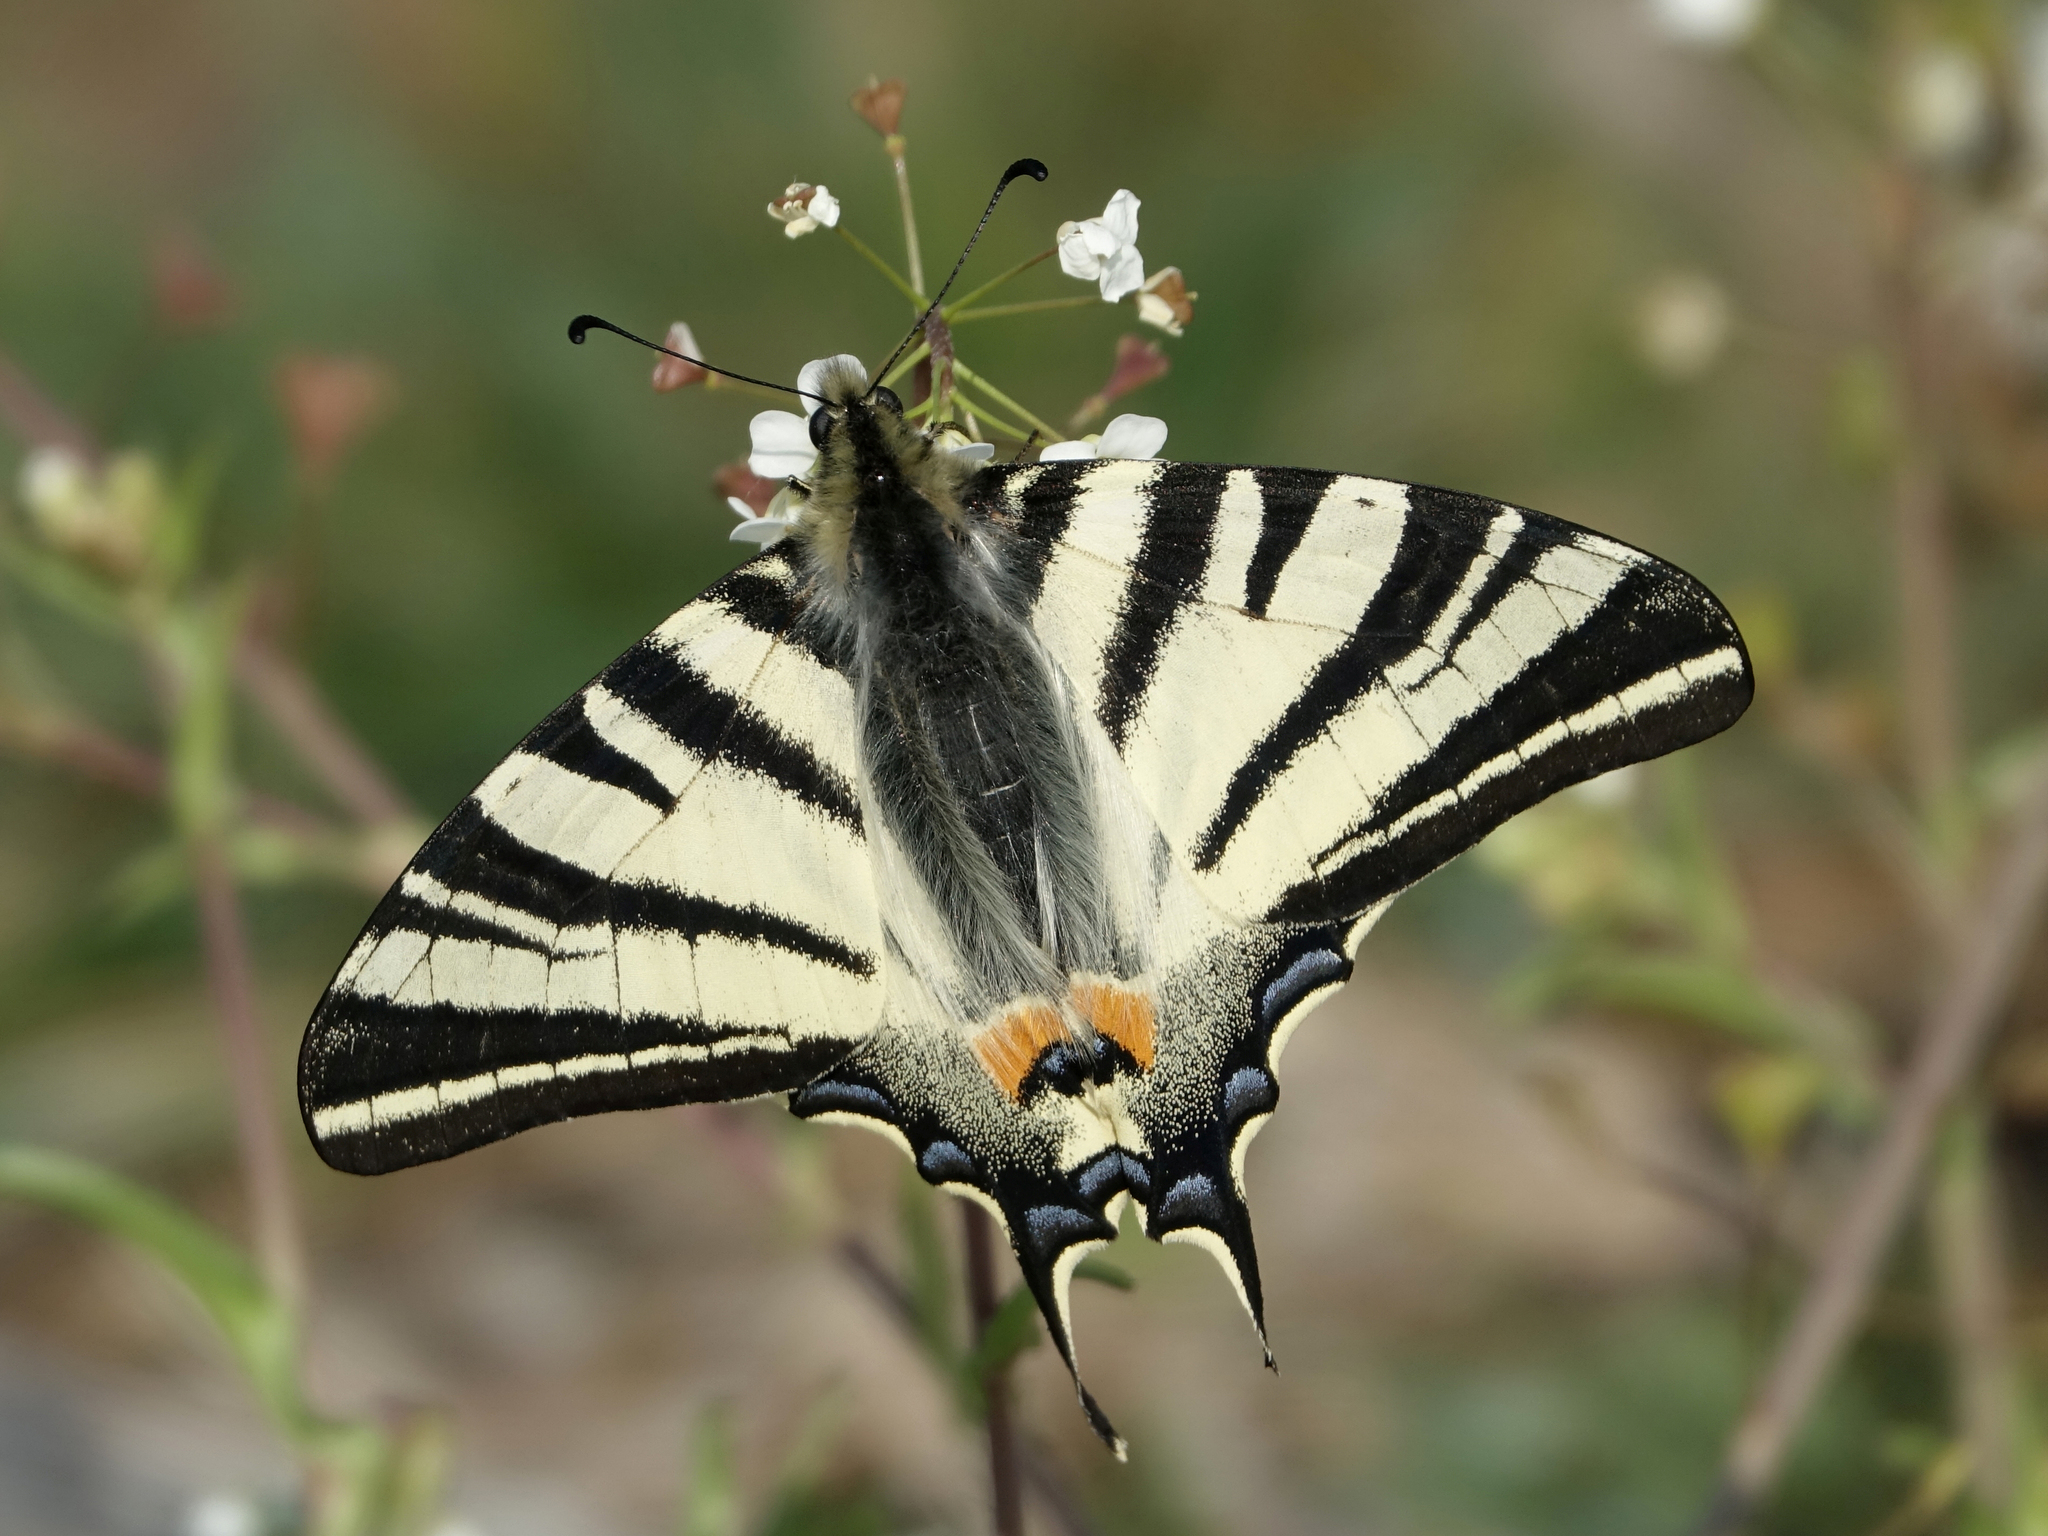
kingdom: Animalia
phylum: Arthropoda
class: Insecta
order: Lepidoptera
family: Papilionidae
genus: Iphiclides
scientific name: Iphiclides podalirius
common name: Scarce swallowtail
